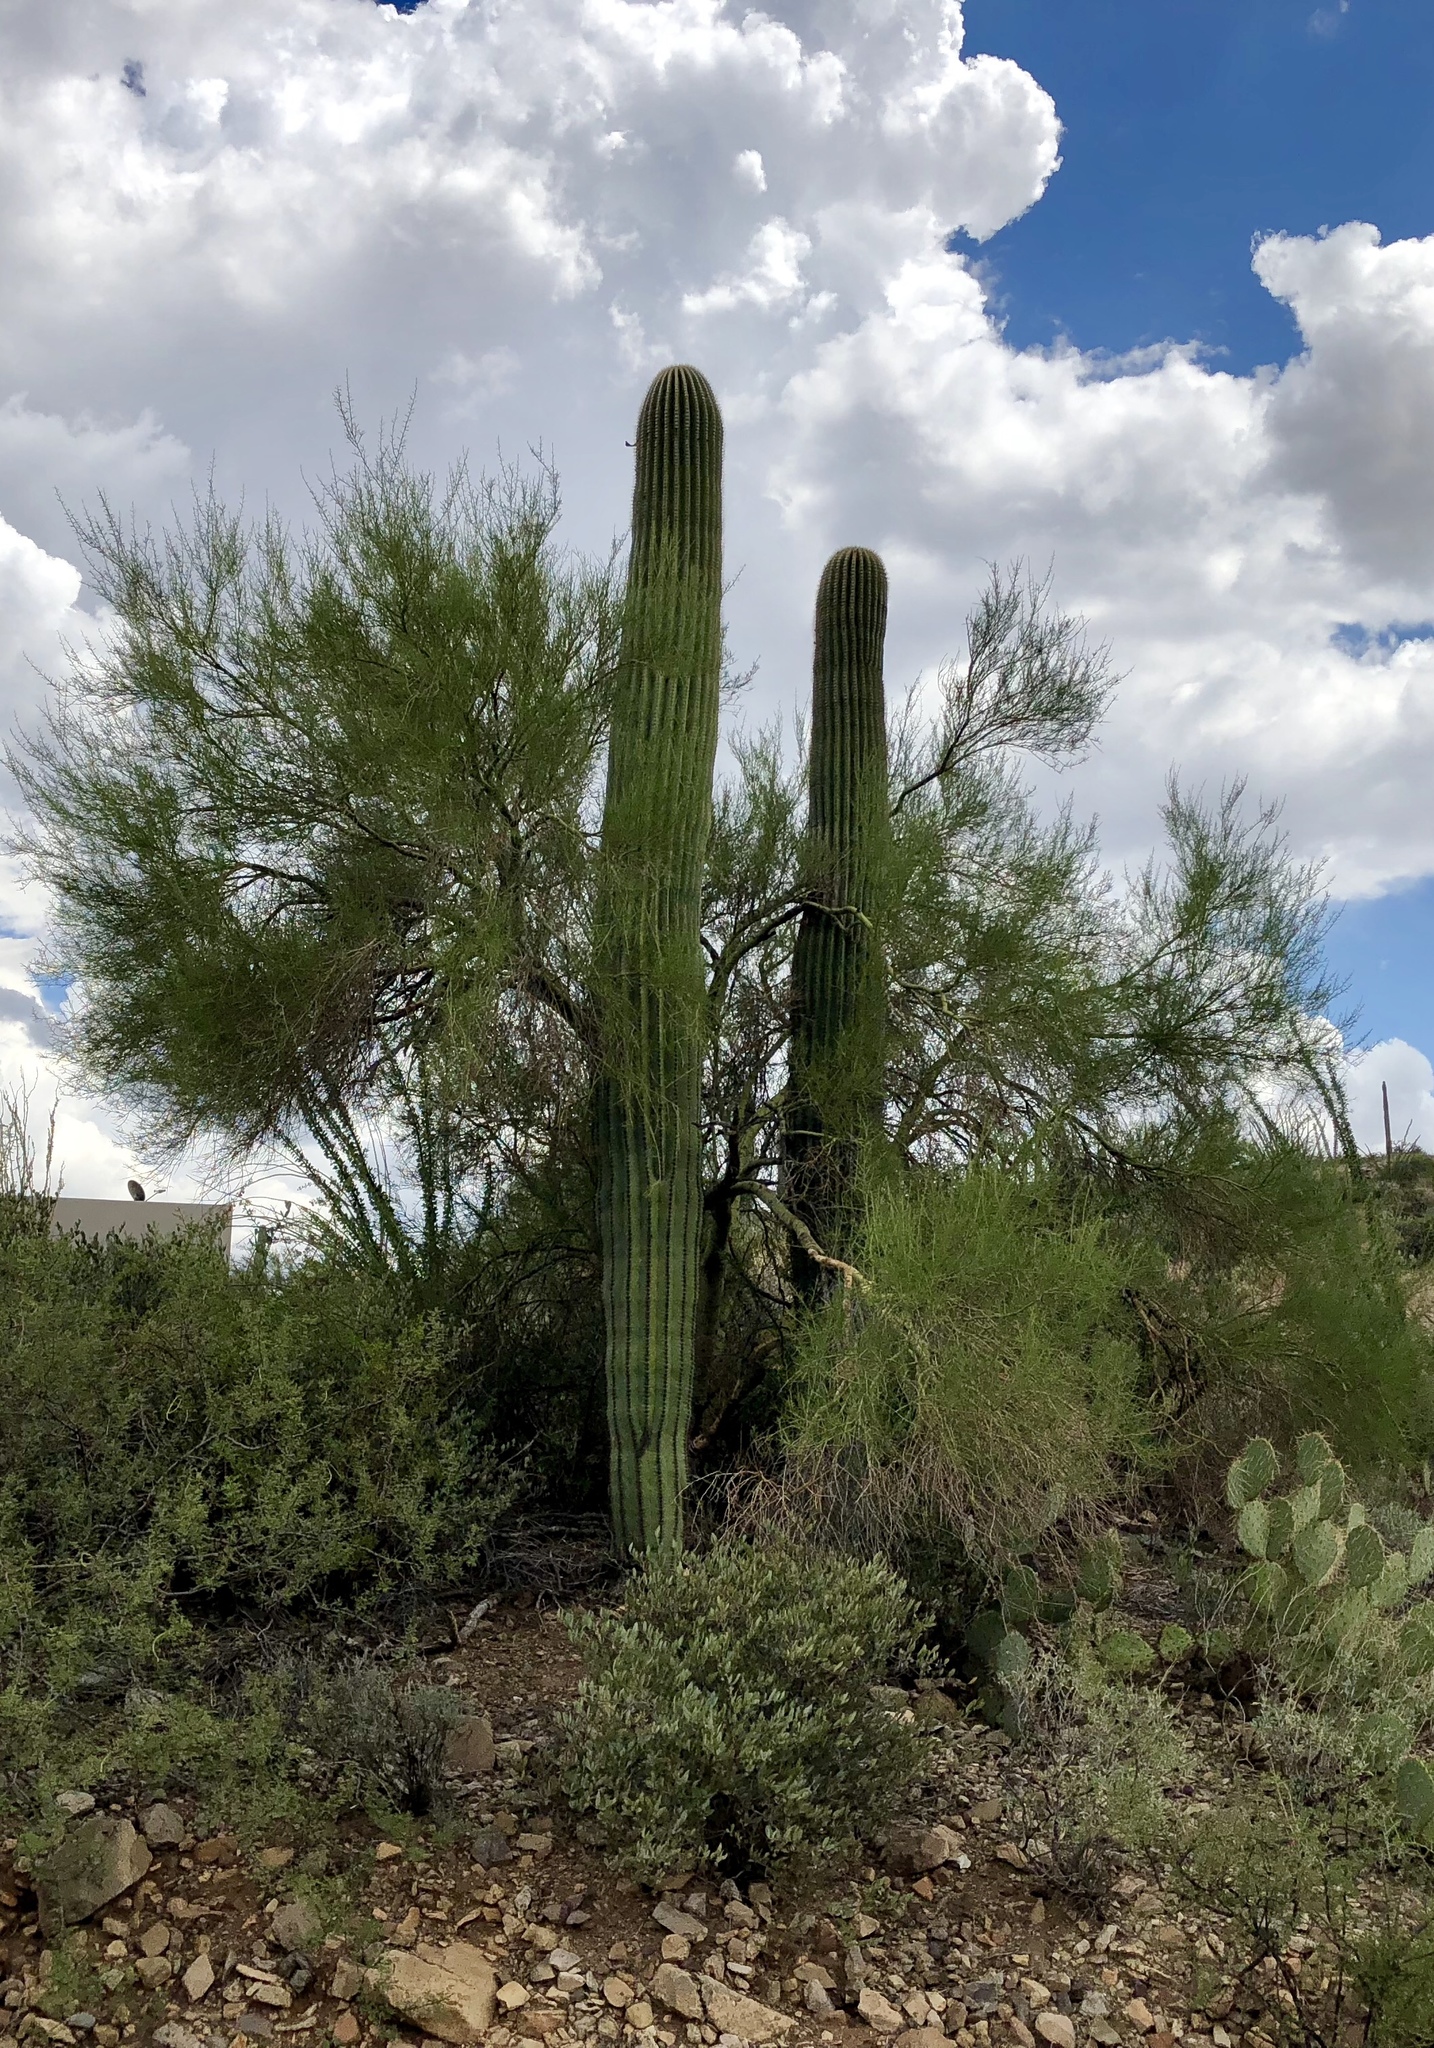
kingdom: Plantae
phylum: Tracheophyta
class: Magnoliopsida
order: Caryophyllales
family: Cactaceae
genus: Carnegiea
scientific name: Carnegiea gigantea
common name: Saguaro
